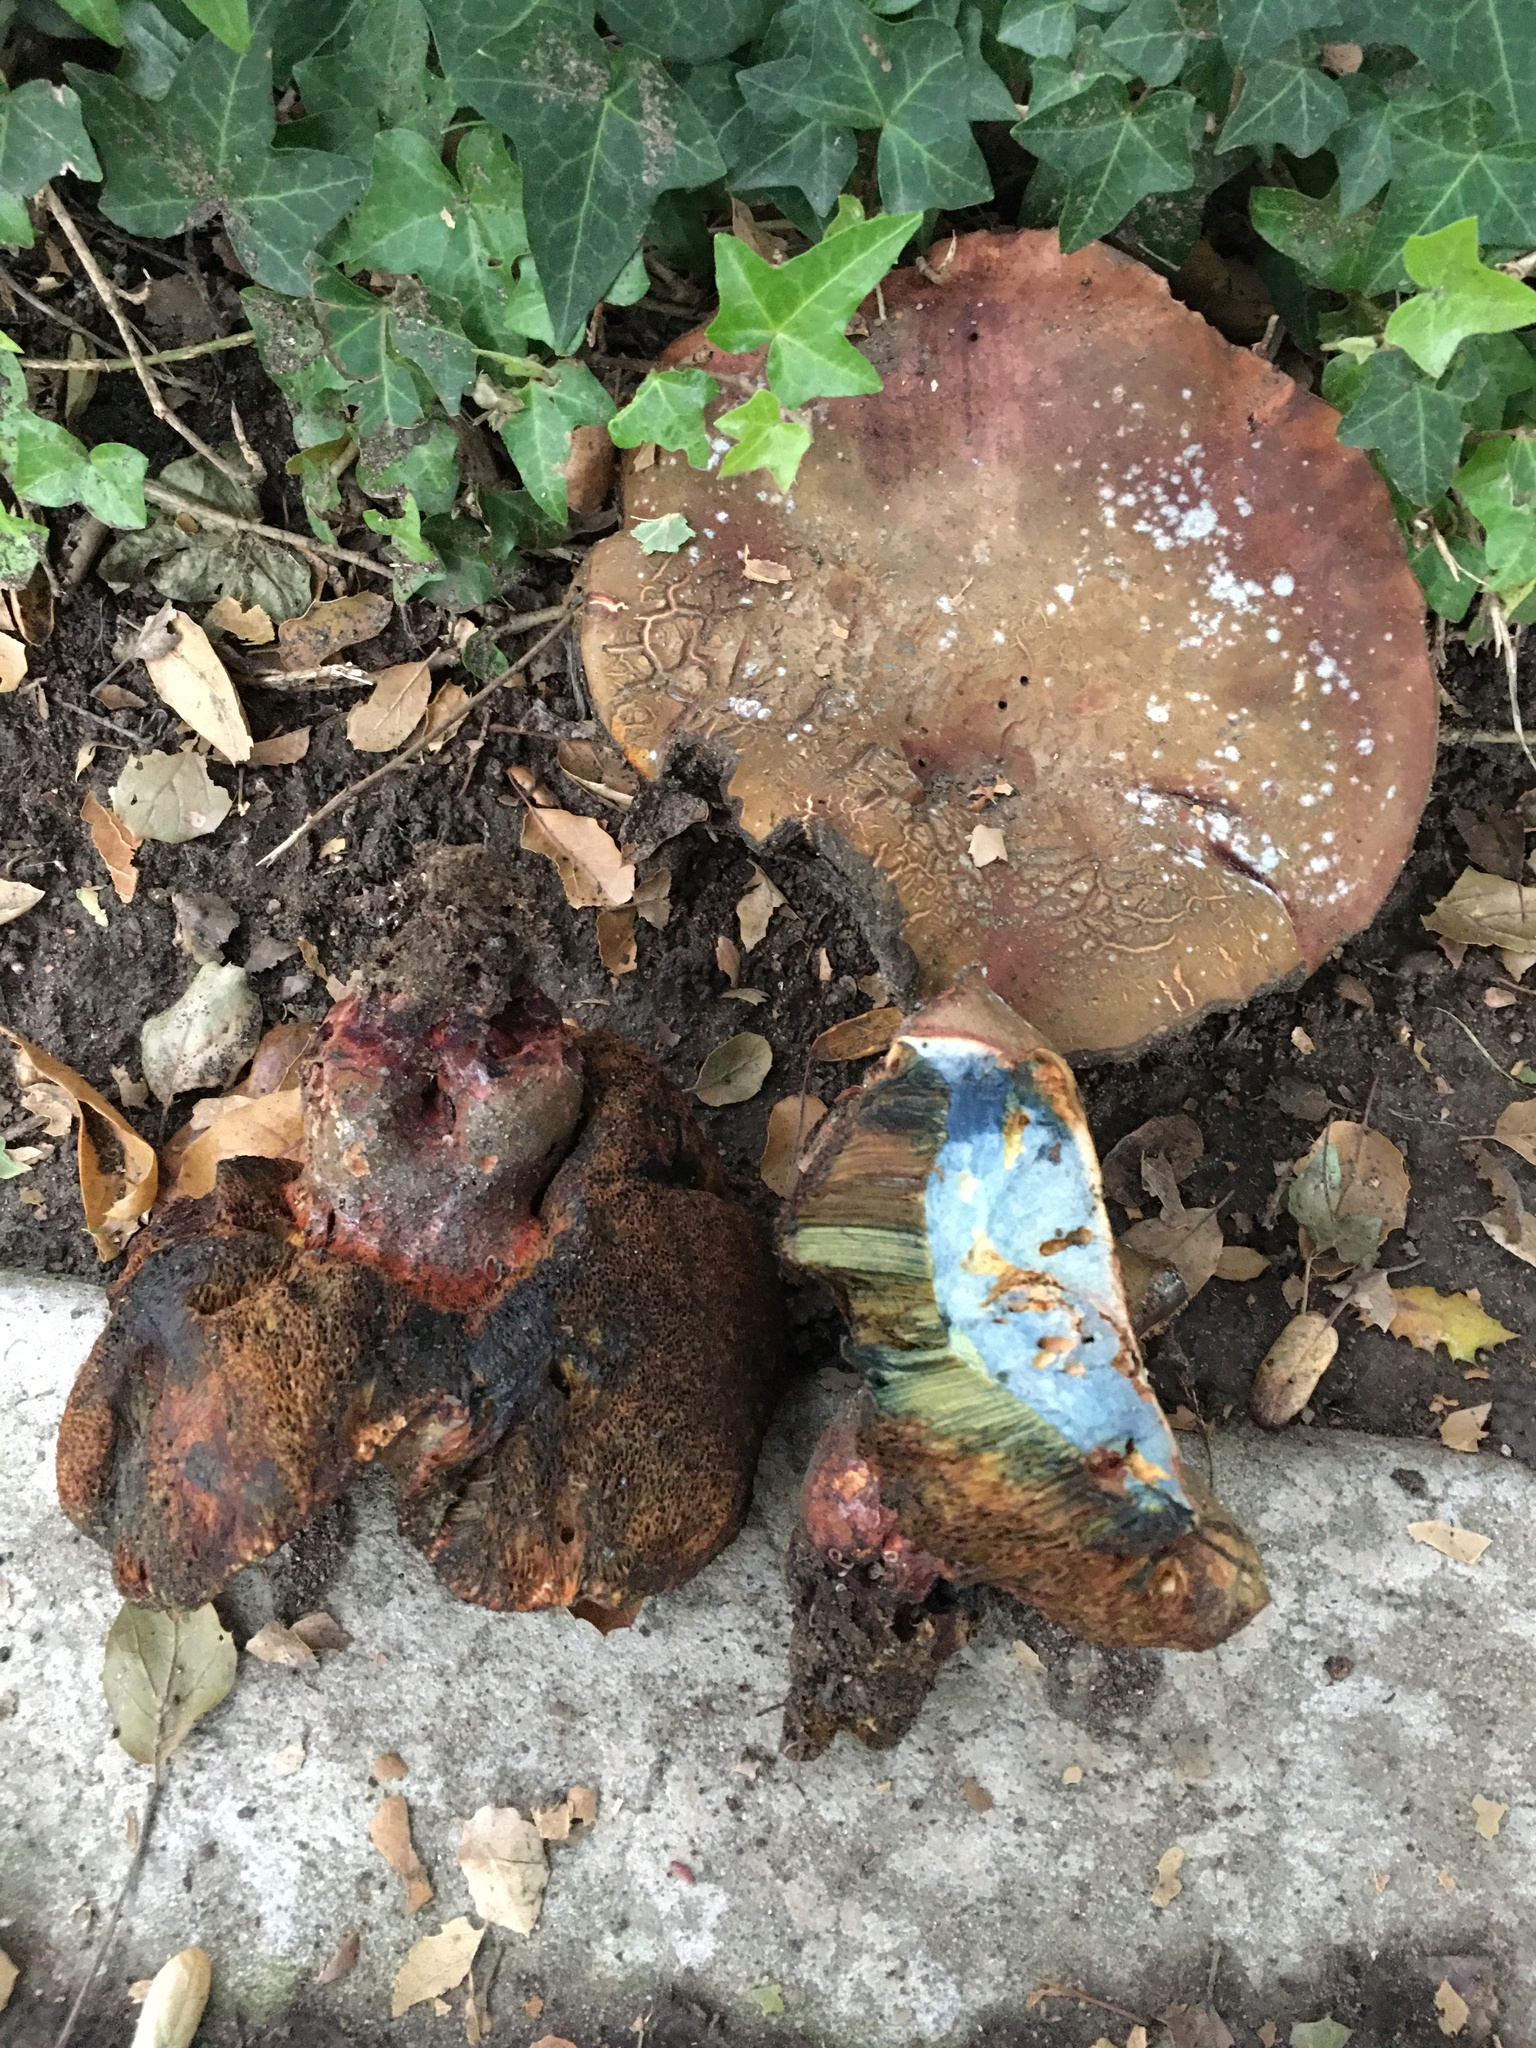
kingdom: Fungi
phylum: Basidiomycota
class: Agaricomycetes
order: Boletales
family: Boletaceae
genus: Suillellus
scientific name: Suillellus amygdalinus
